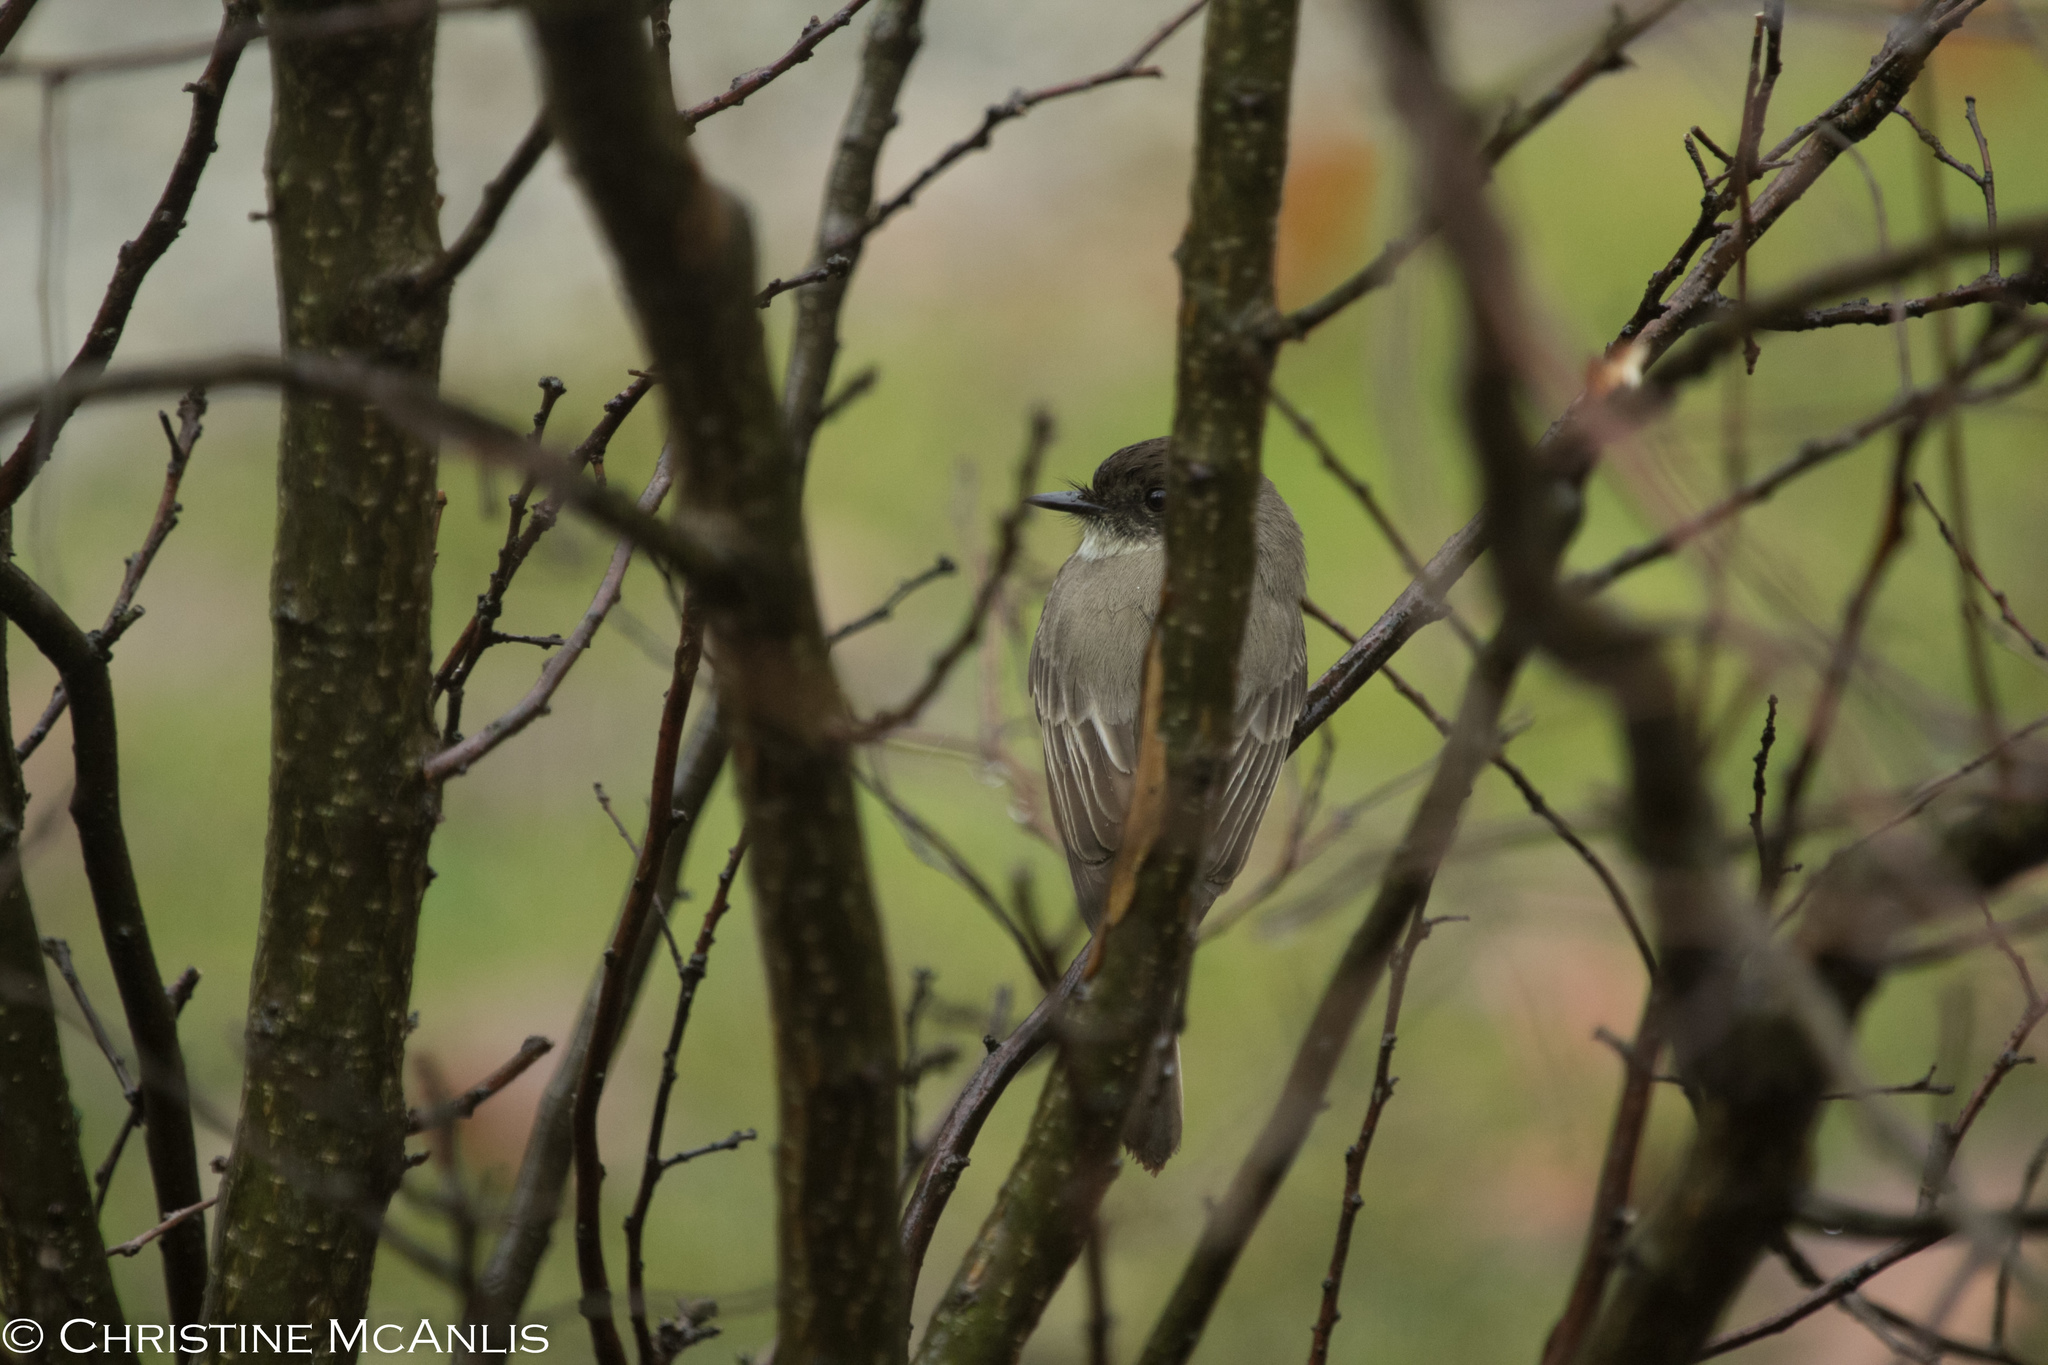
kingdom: Animalia
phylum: Chordata
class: Aves
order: Passeriformes
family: Tyrannidae
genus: Sayornis
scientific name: Sayornis phoebe
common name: Eastern phoebe
